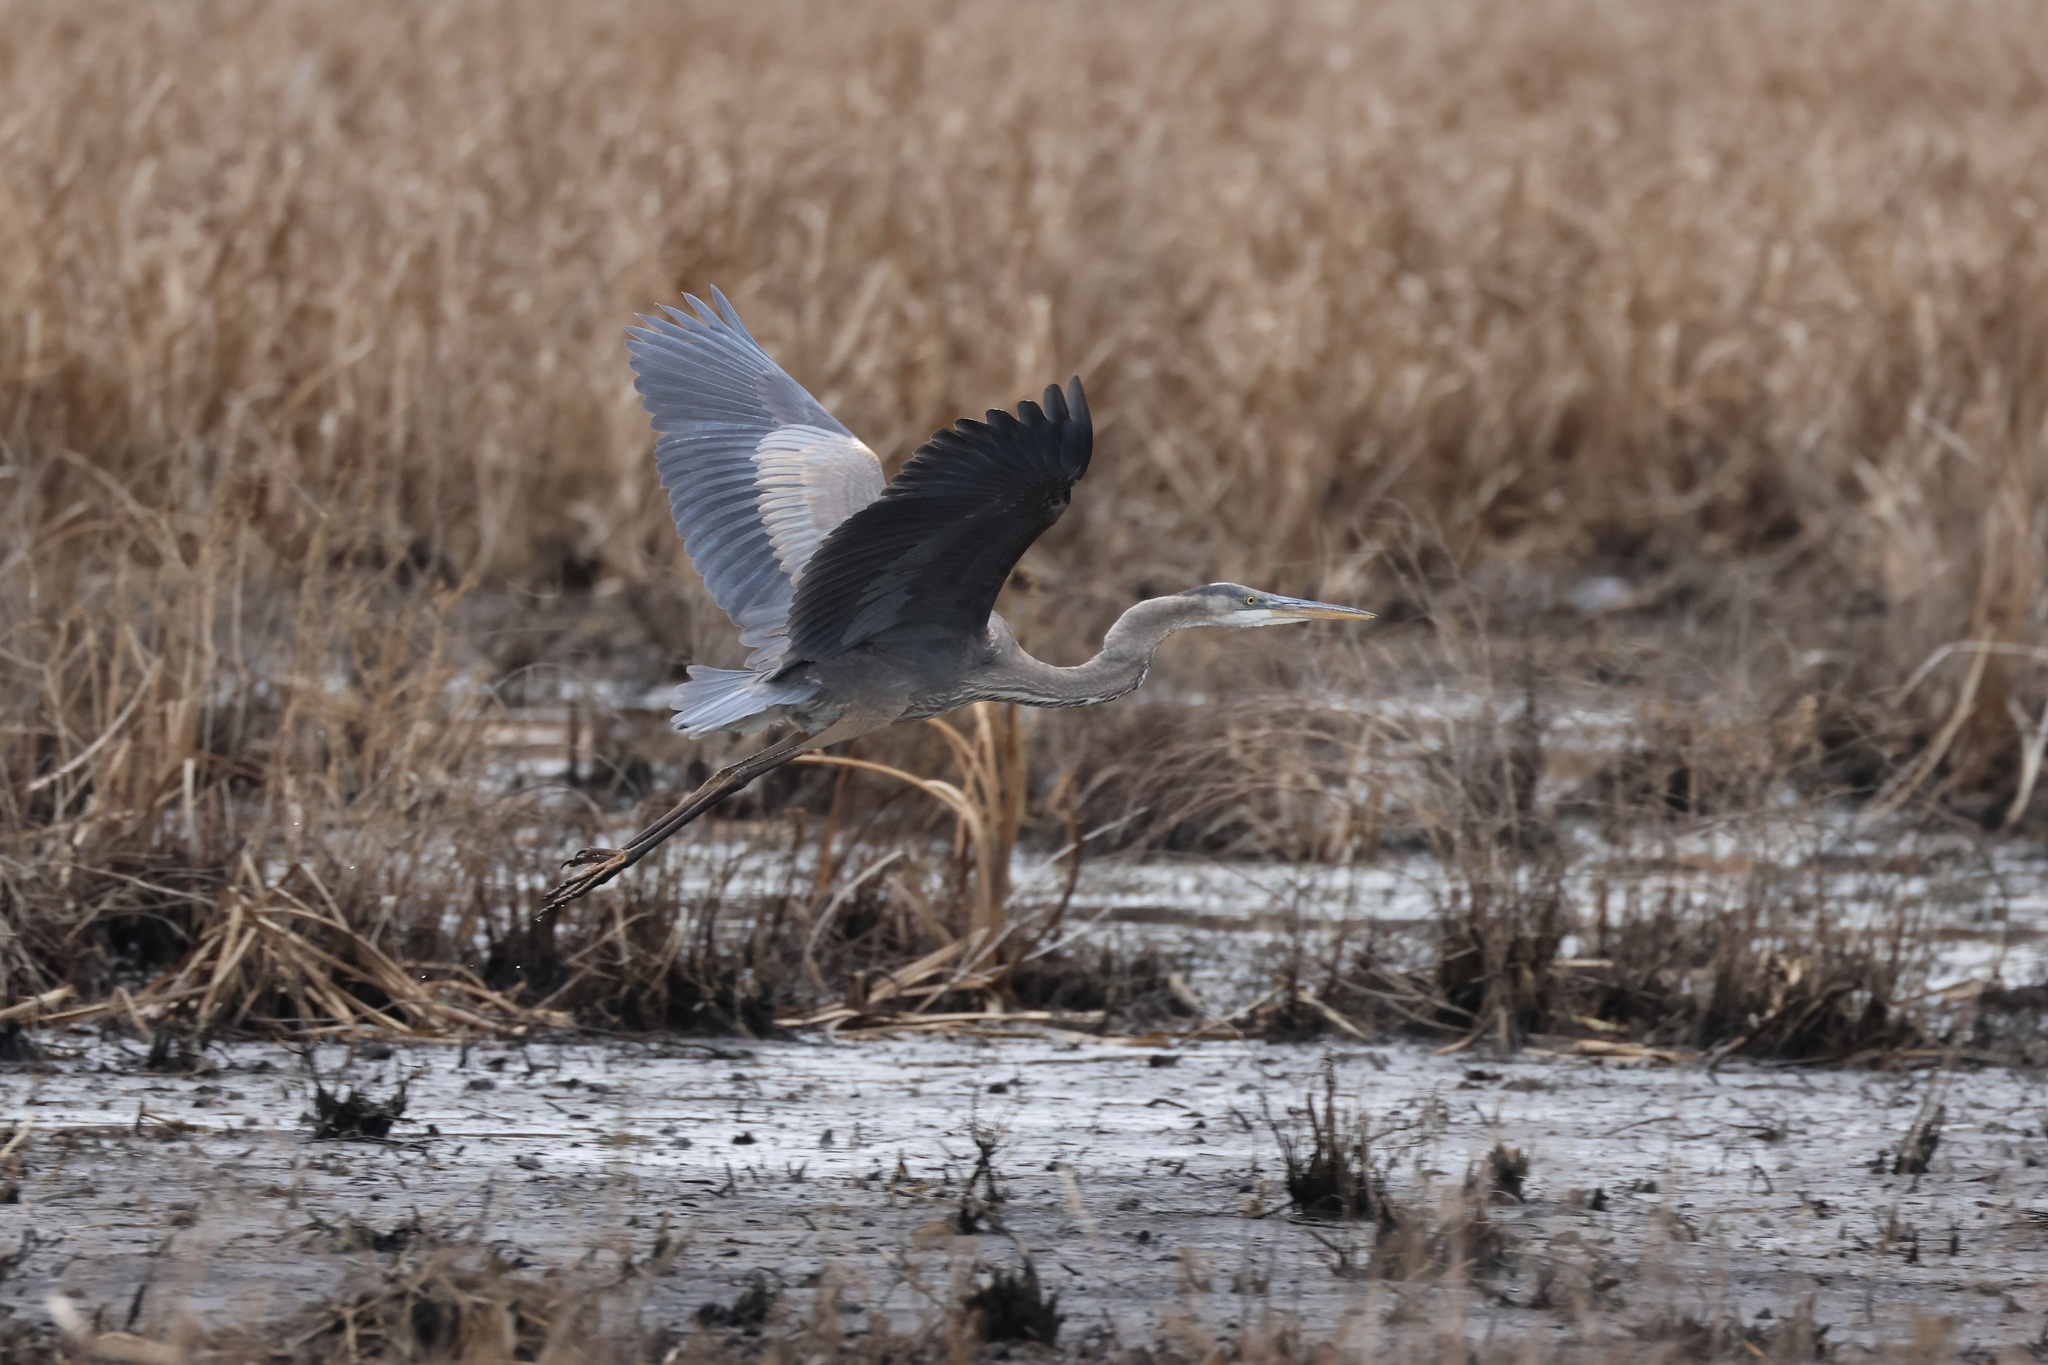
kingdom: Animalia
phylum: Chordata
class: Aves
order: Pelecaniformes
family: Ardeidae
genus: Ardea
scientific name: Ardea herodias
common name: Great blue heron
